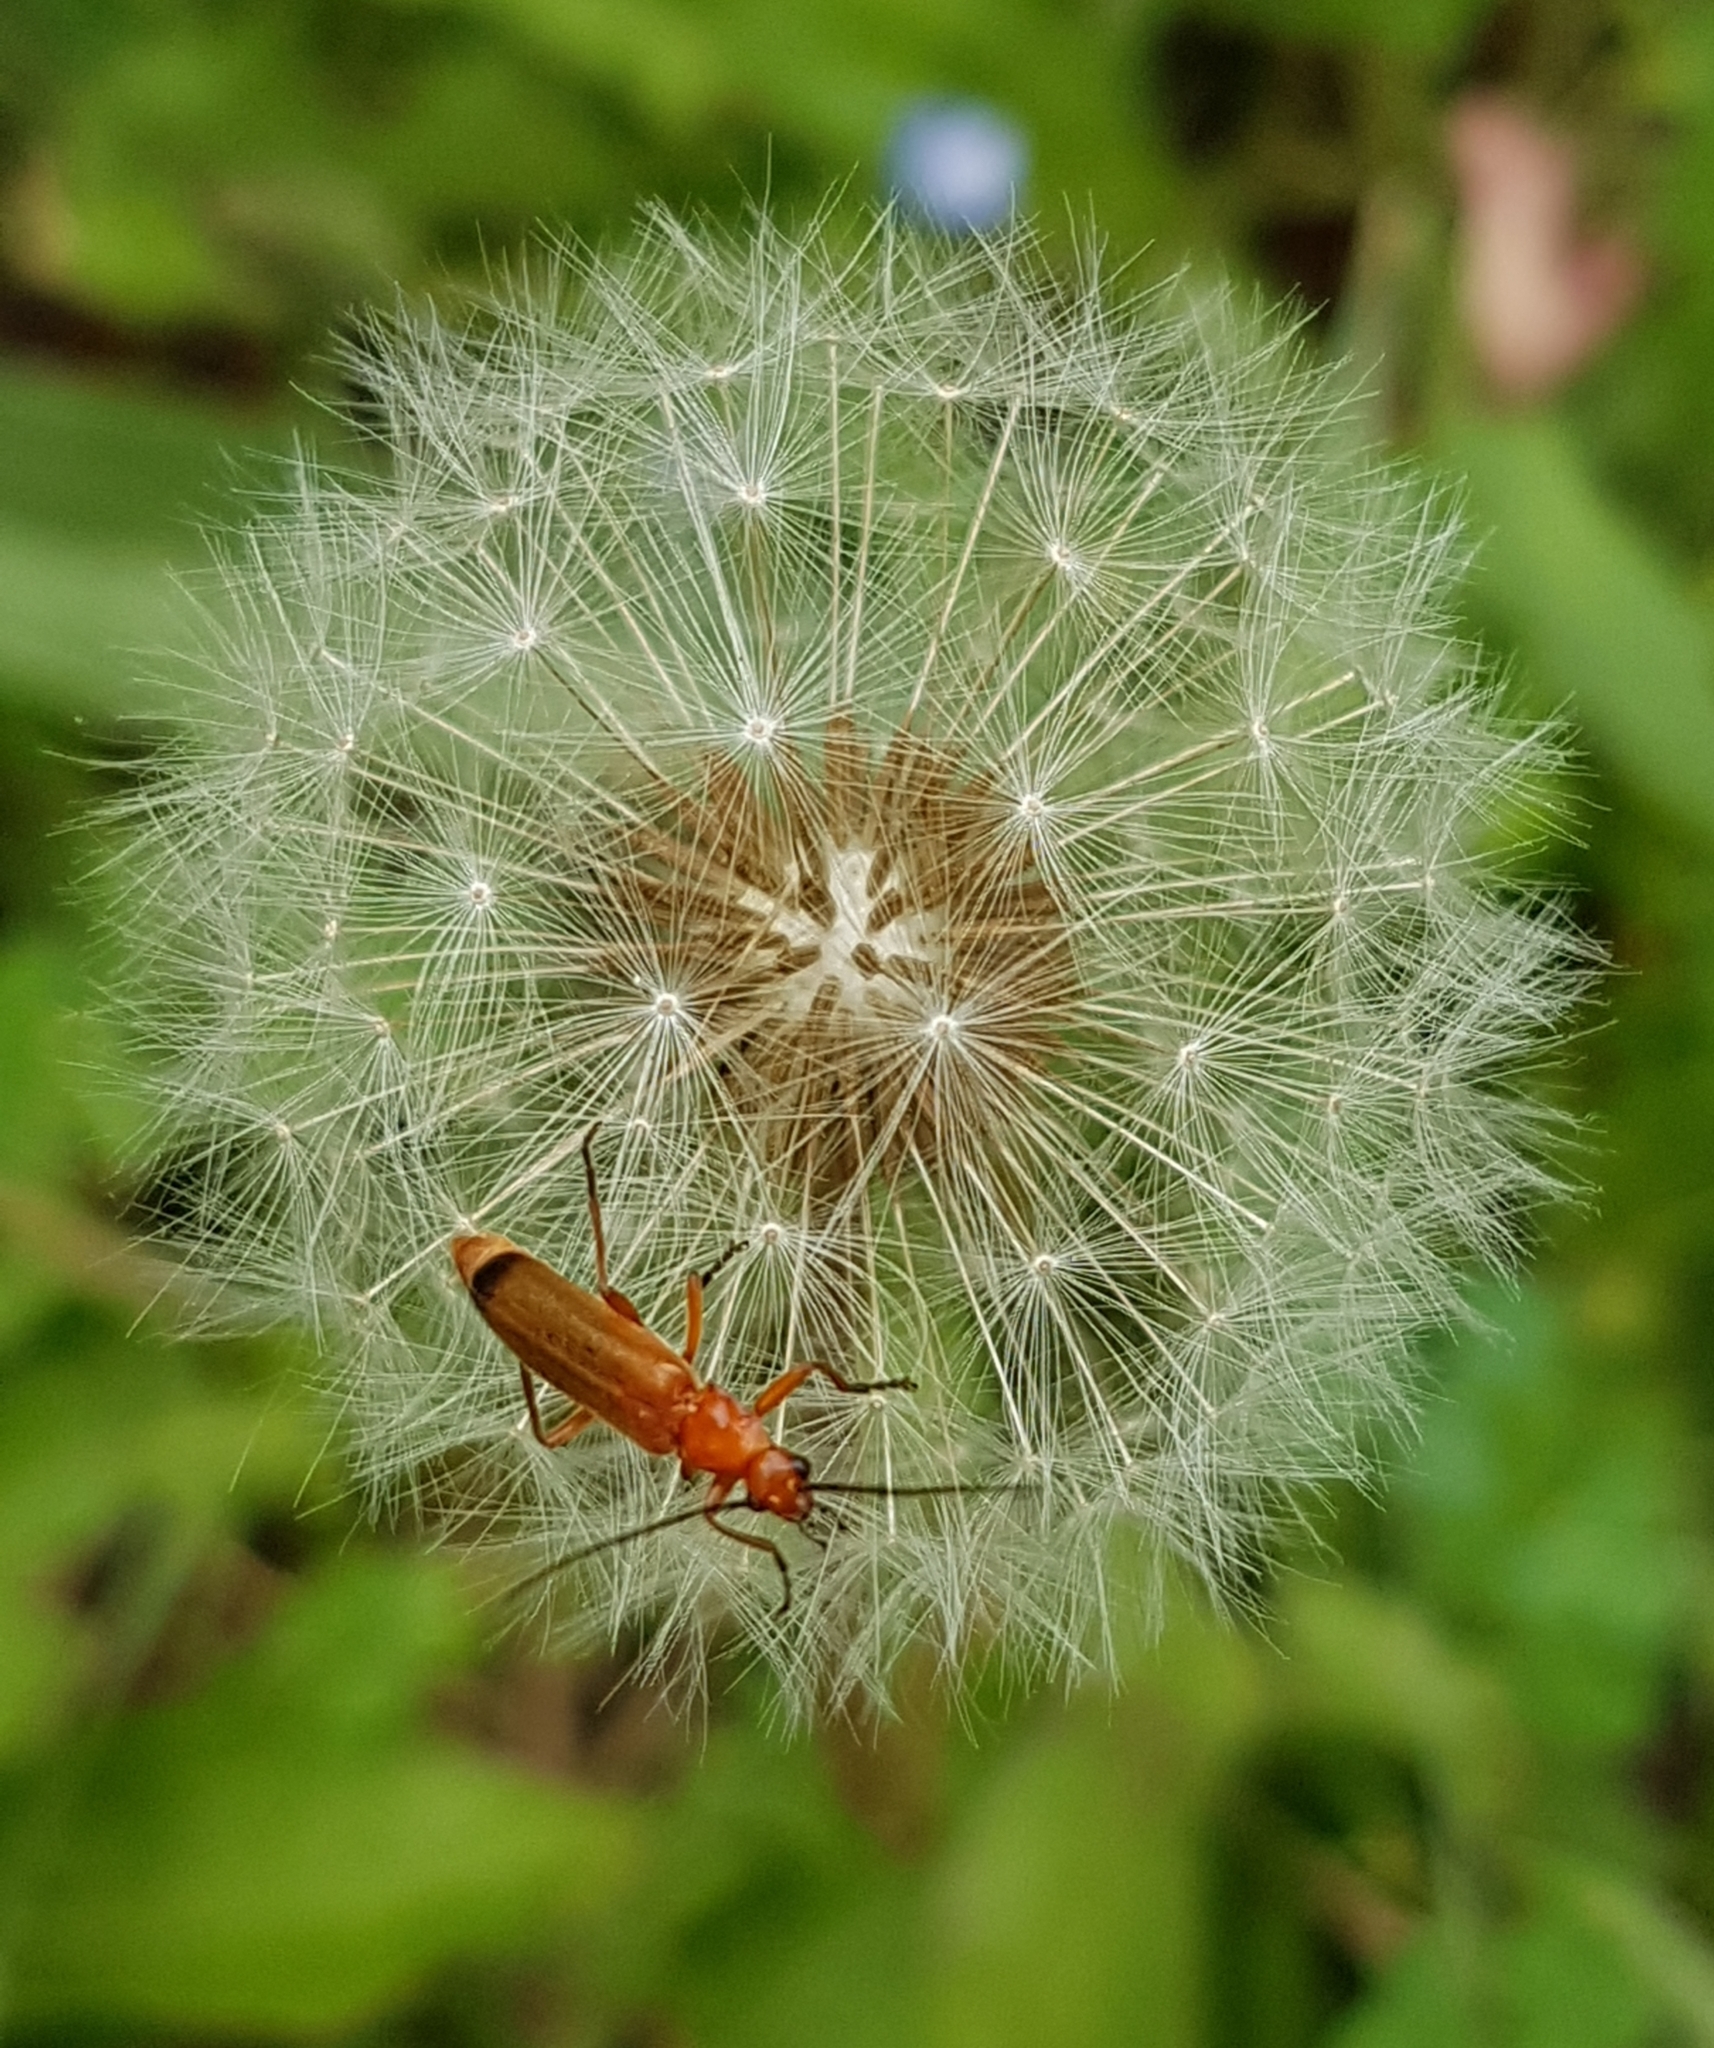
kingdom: Animalia
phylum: Arthropoda
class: Insecta
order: Coleoptera
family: Cantharidae
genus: Rhagonycha
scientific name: Rhagonycha fulva
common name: Common red soldier beetle
